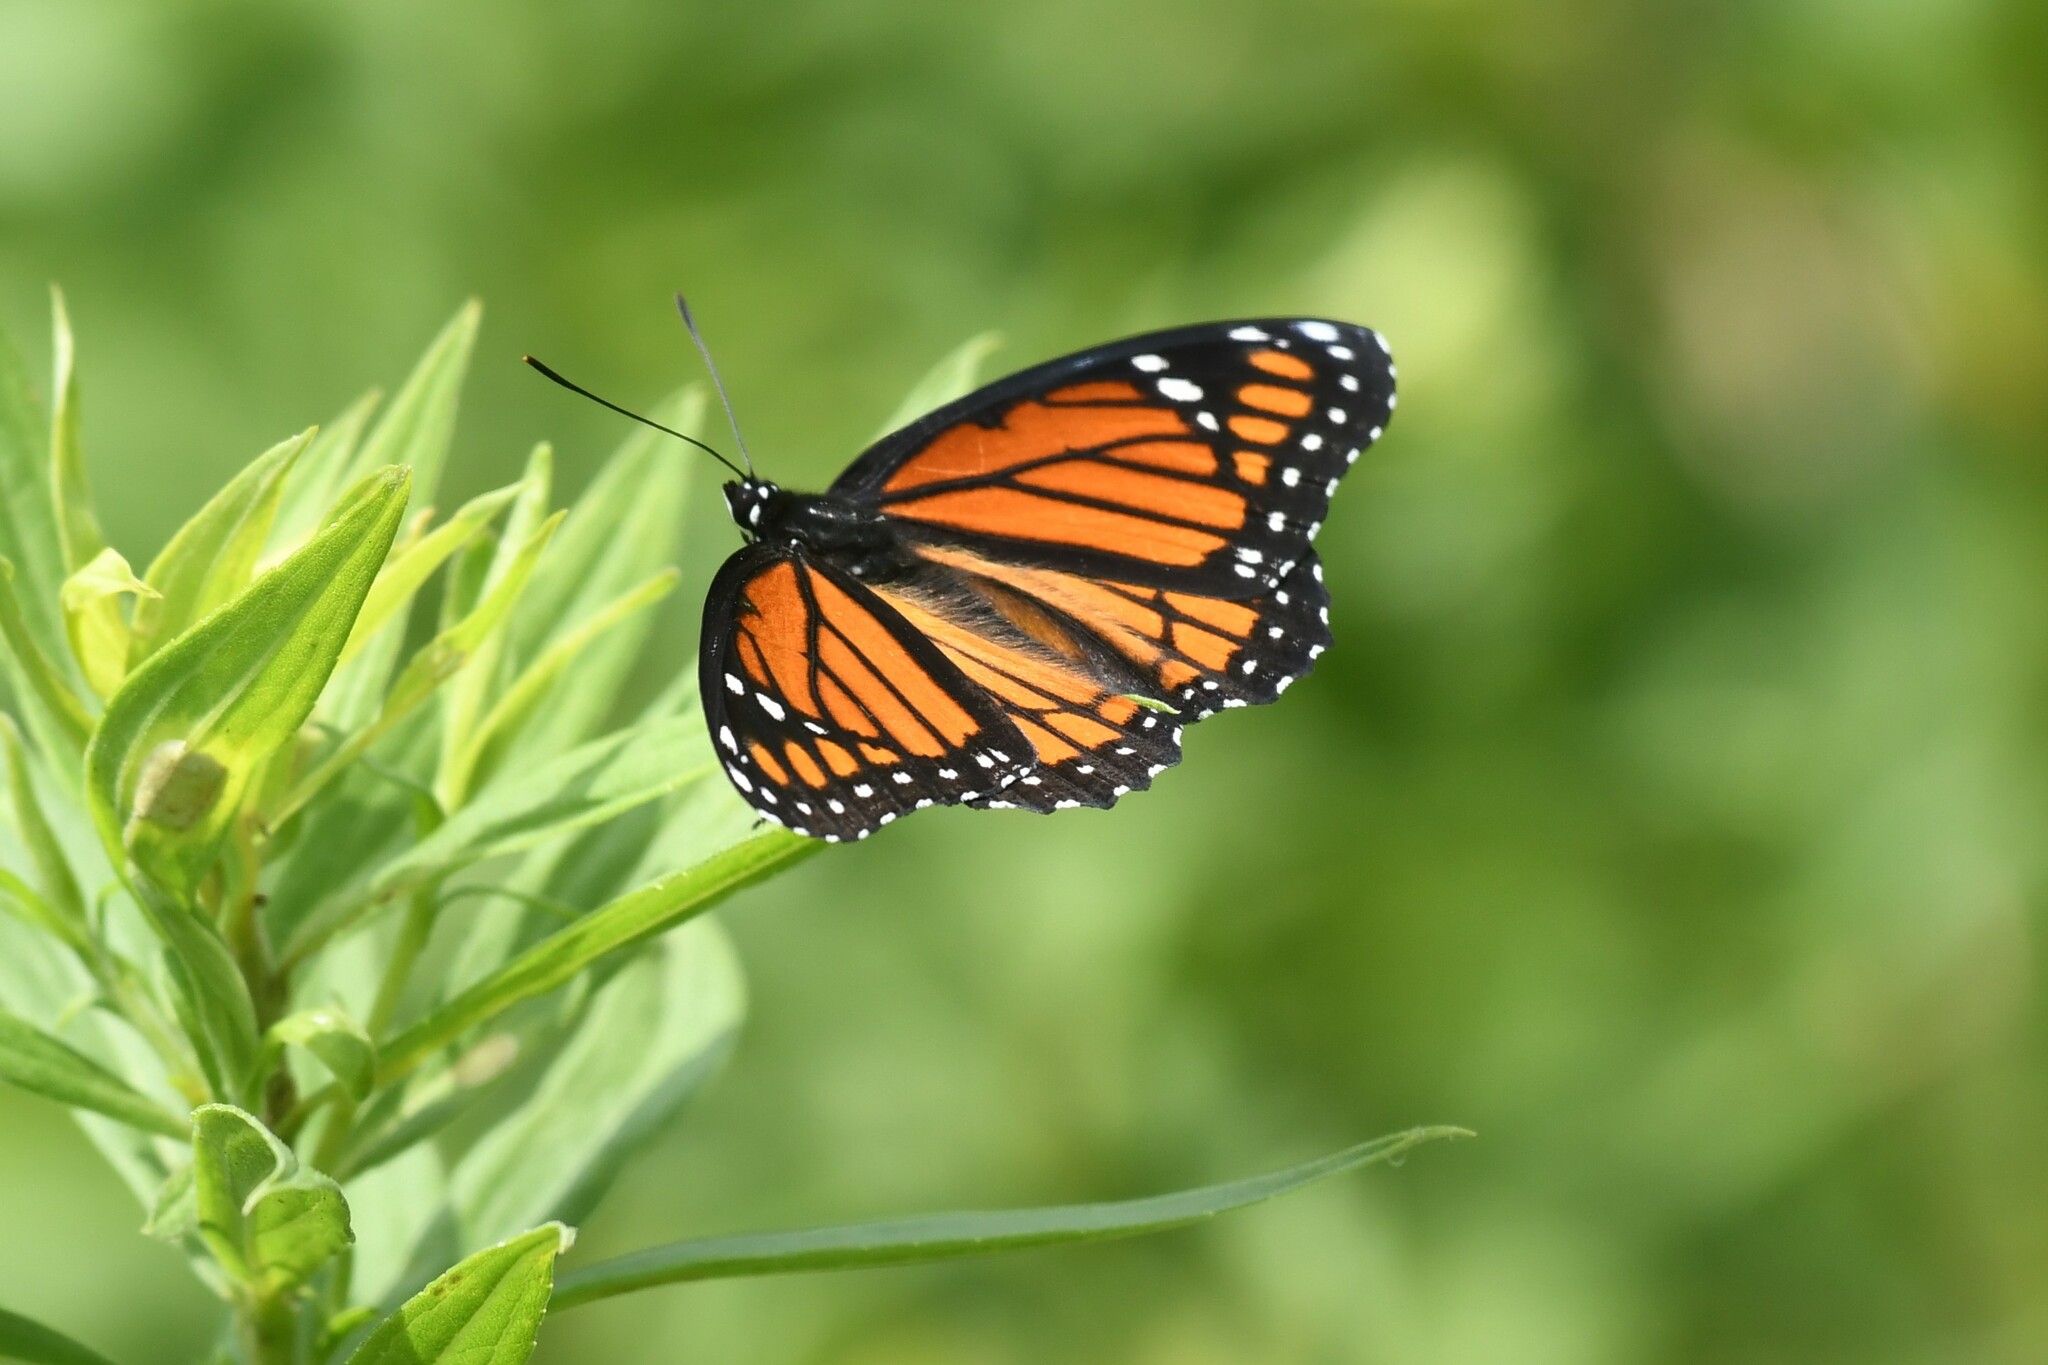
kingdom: Animalia
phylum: Arthropoda
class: Insecta
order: Lepidoptera
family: Nymphalidae
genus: Limenitis
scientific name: Limenitis archippus
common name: Viceroy
